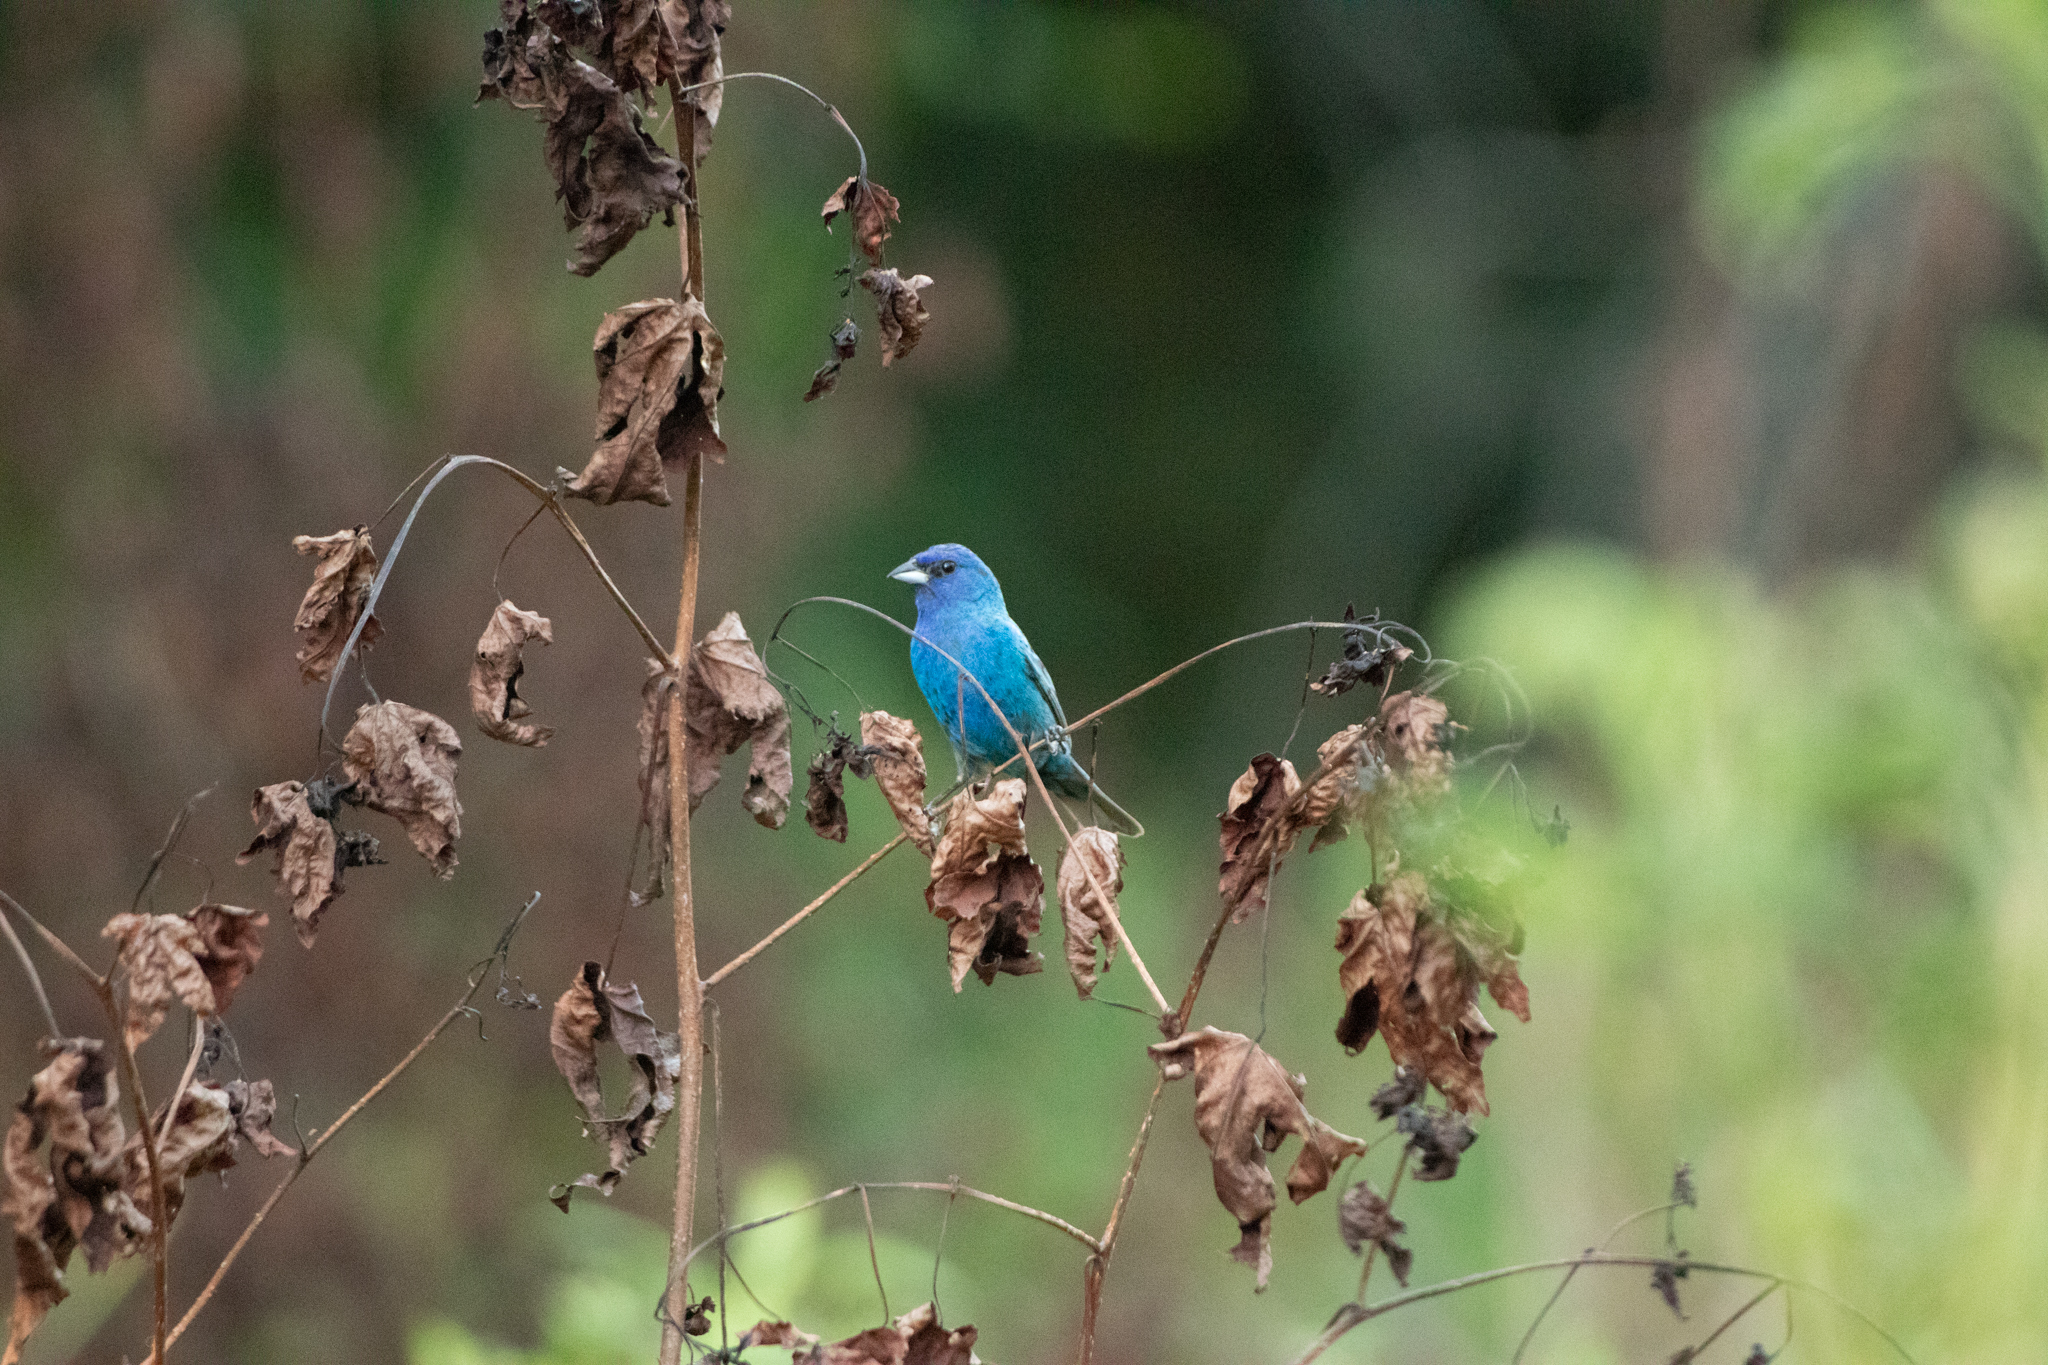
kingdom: Animalia
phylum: Chordata
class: Aves
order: Passeriformes
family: Cardinalidae
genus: Passerina
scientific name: Passerina cyanea
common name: Indigo bunting
